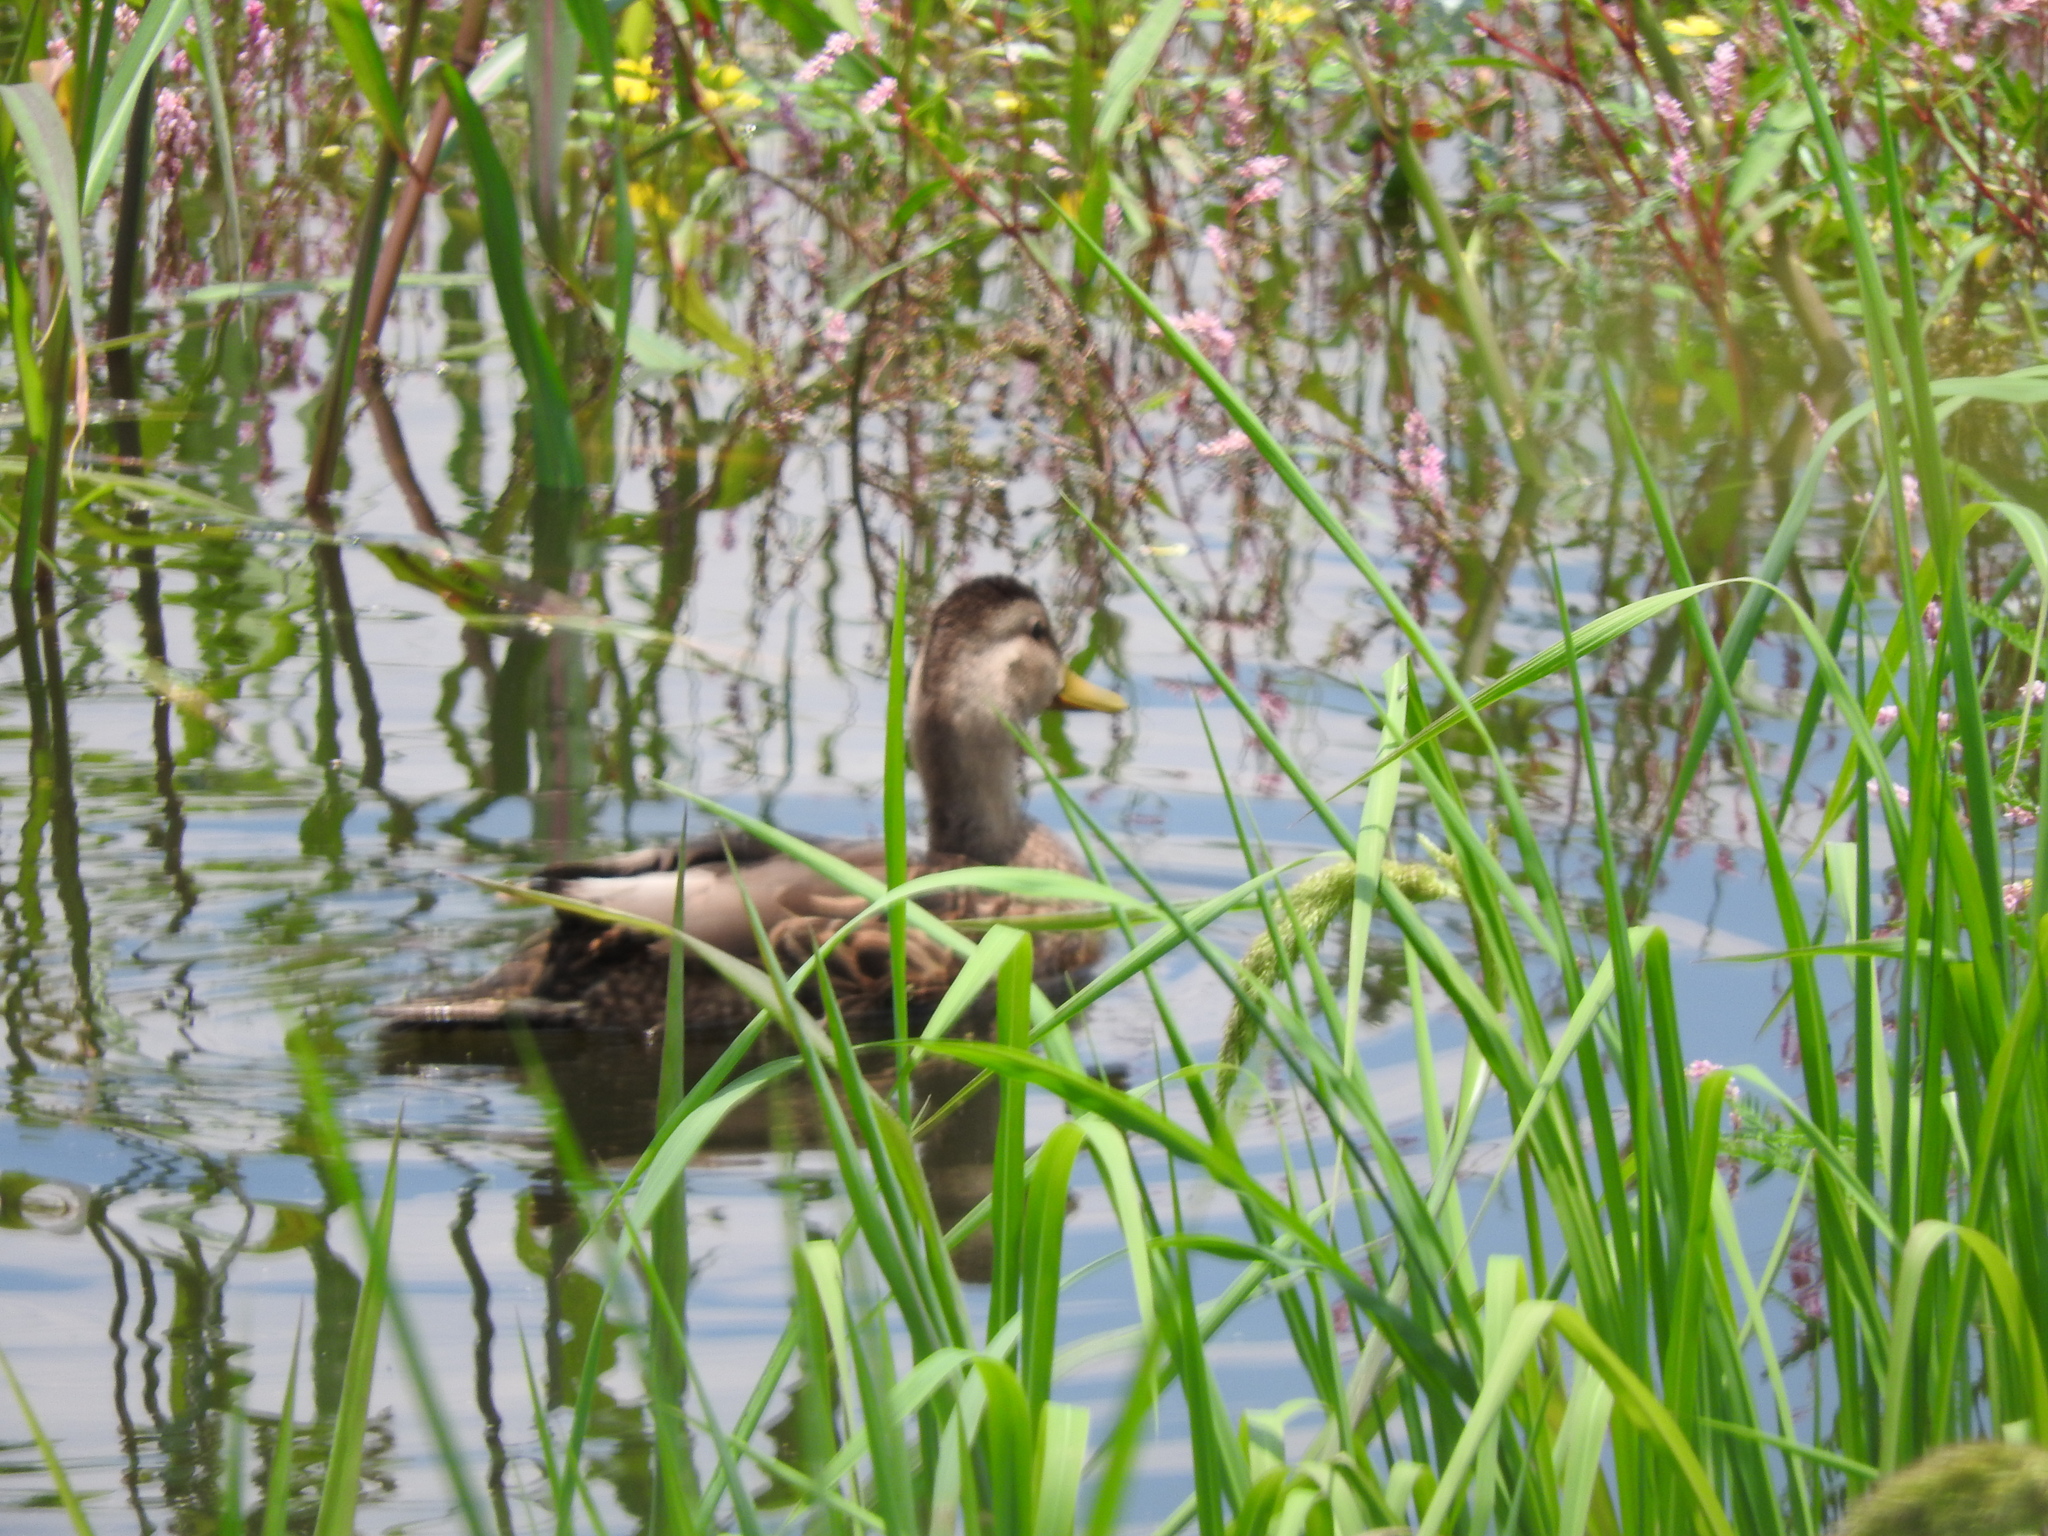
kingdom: Animalia
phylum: Chordata
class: Aves
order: Anseriformes
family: Anatidae
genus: Anas
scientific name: Anas diazi
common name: Mexican duck
